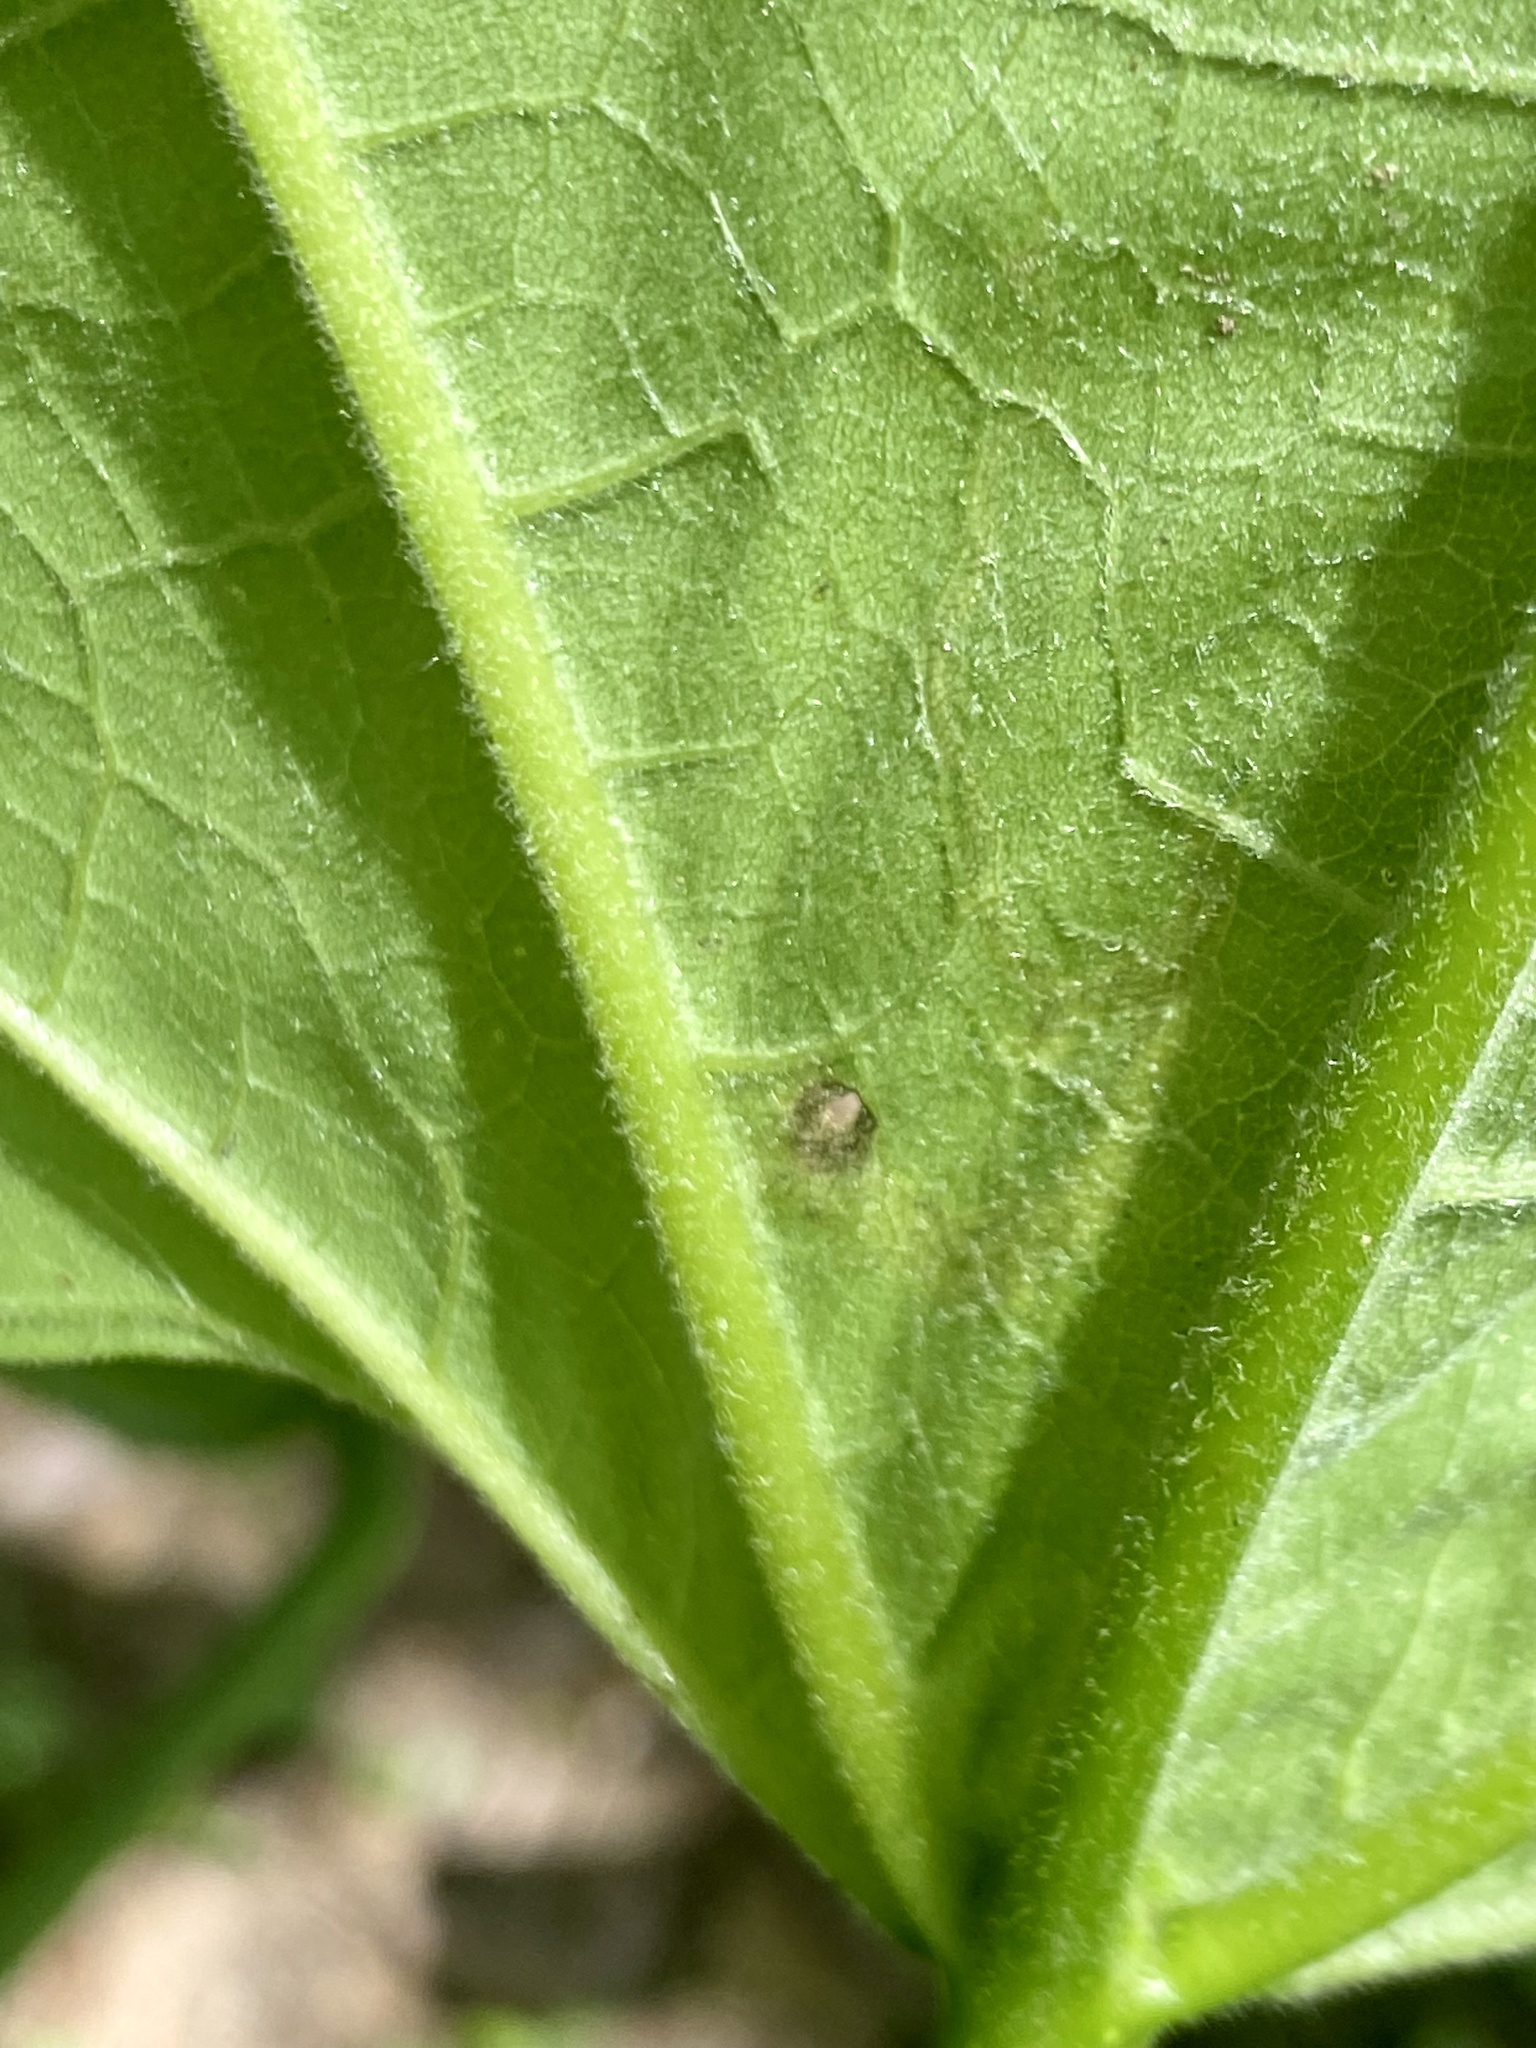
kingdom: Animalia
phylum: Arthropoda
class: Insecta
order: Diptera
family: Agromyzidae
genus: Amauromyza
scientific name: Amauromyza pleuralis
